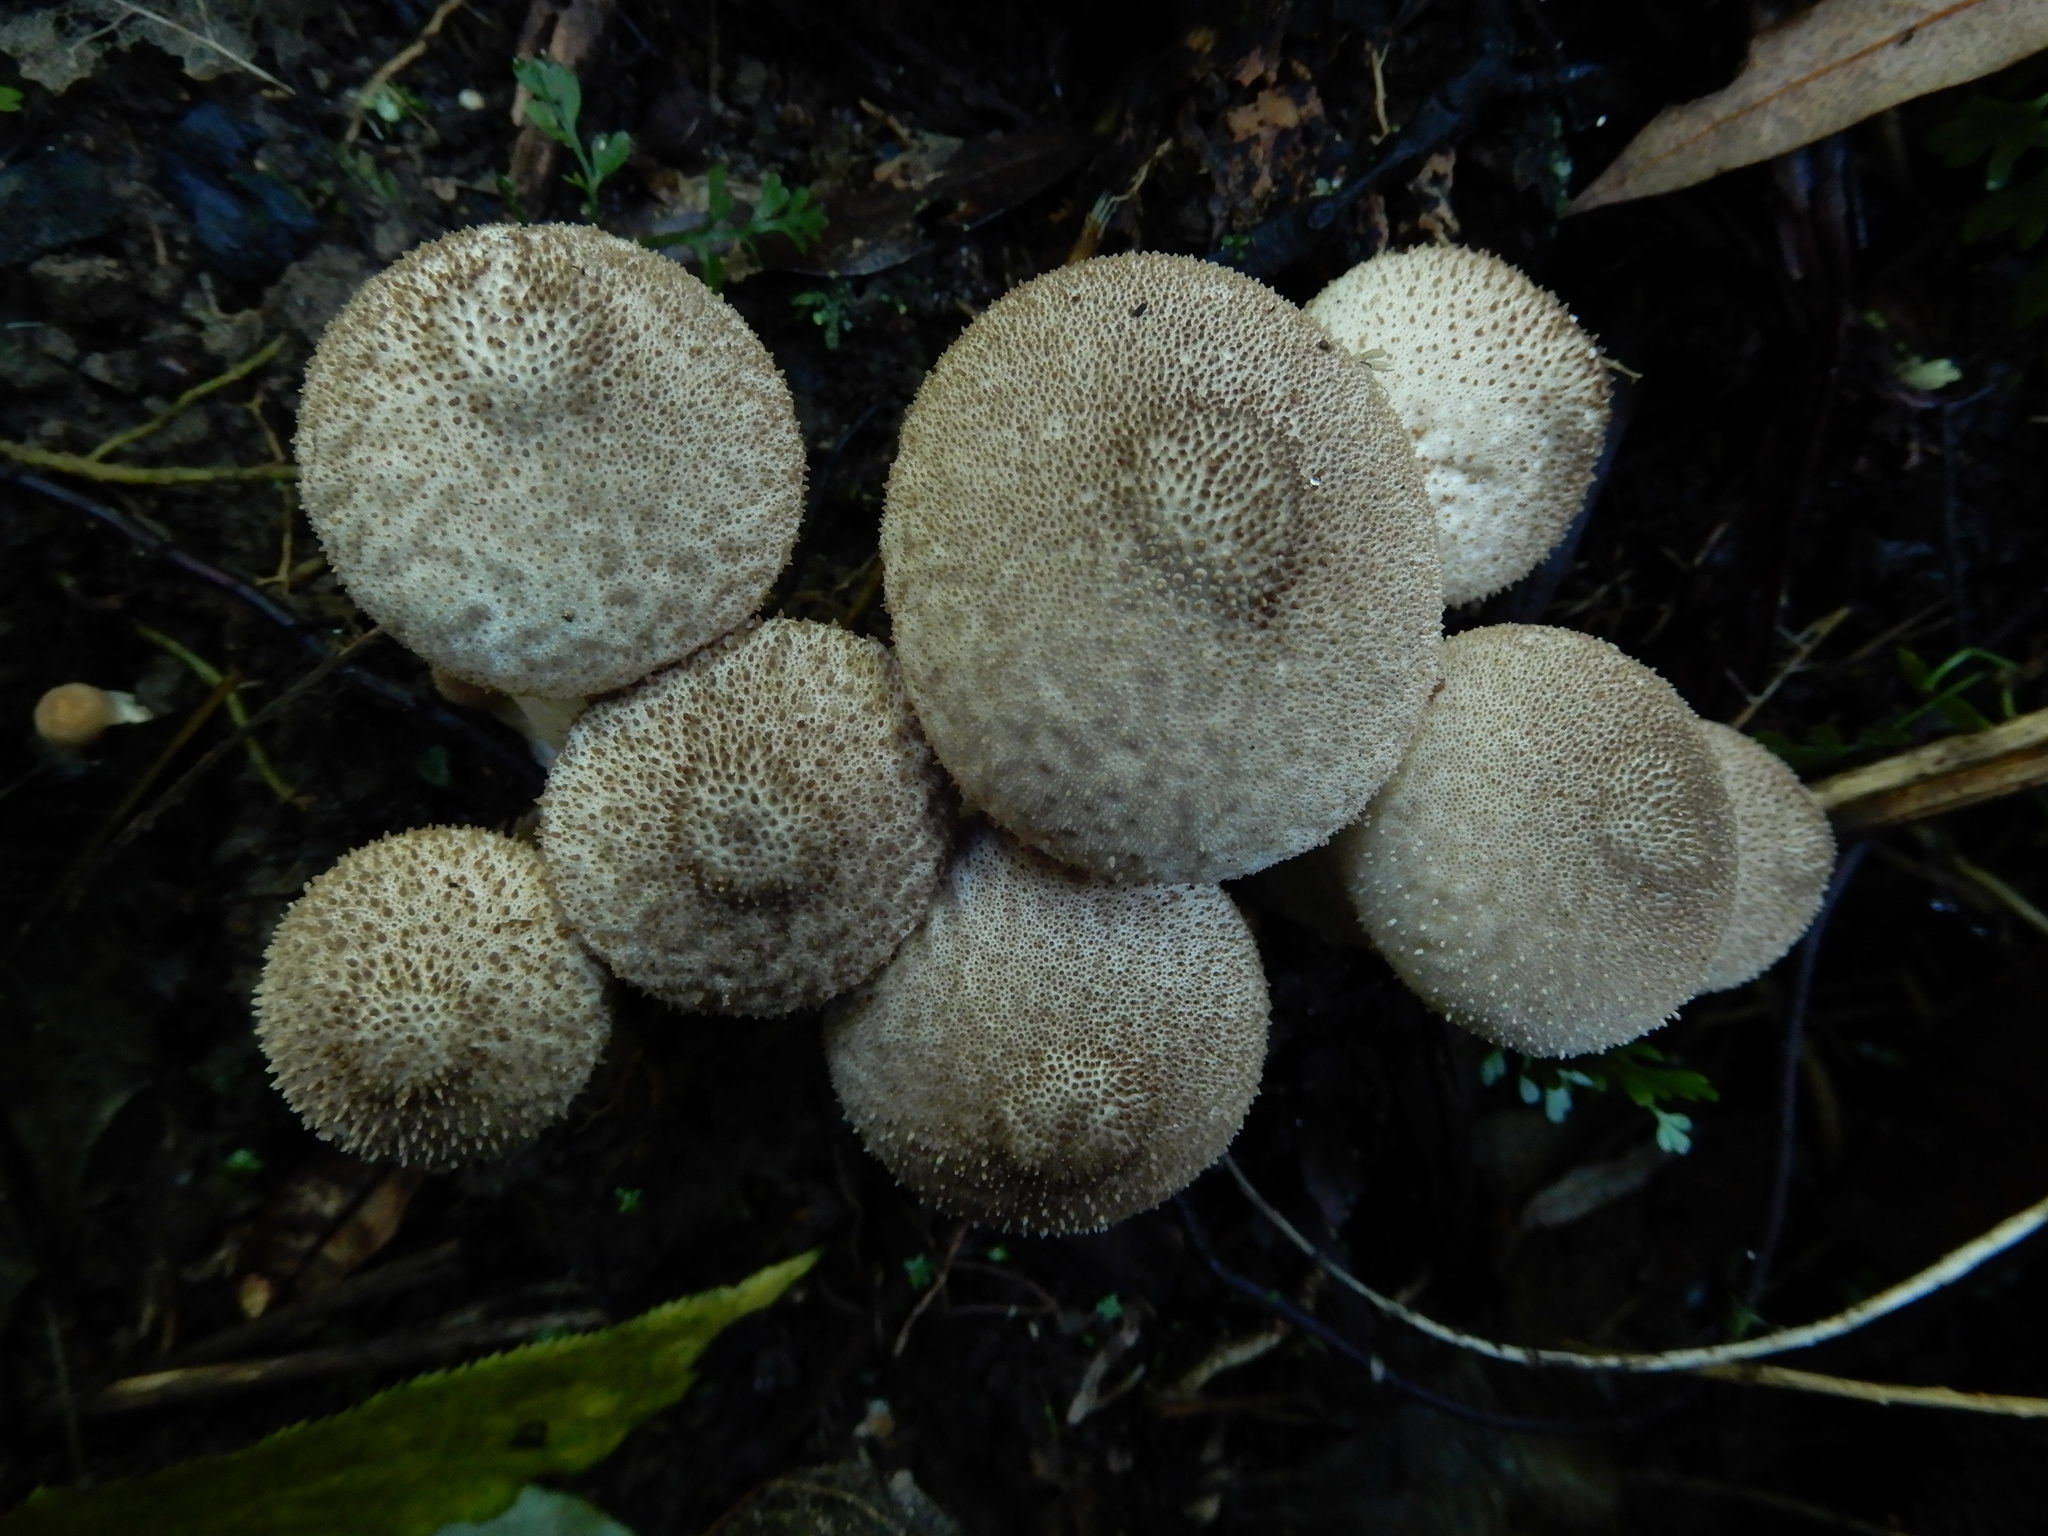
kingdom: Fungi
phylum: Basidiomycota
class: Agaricomycetes
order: Agaricales
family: Lycoperdaceae
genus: Lycoperdon
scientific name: Lycoperdon
